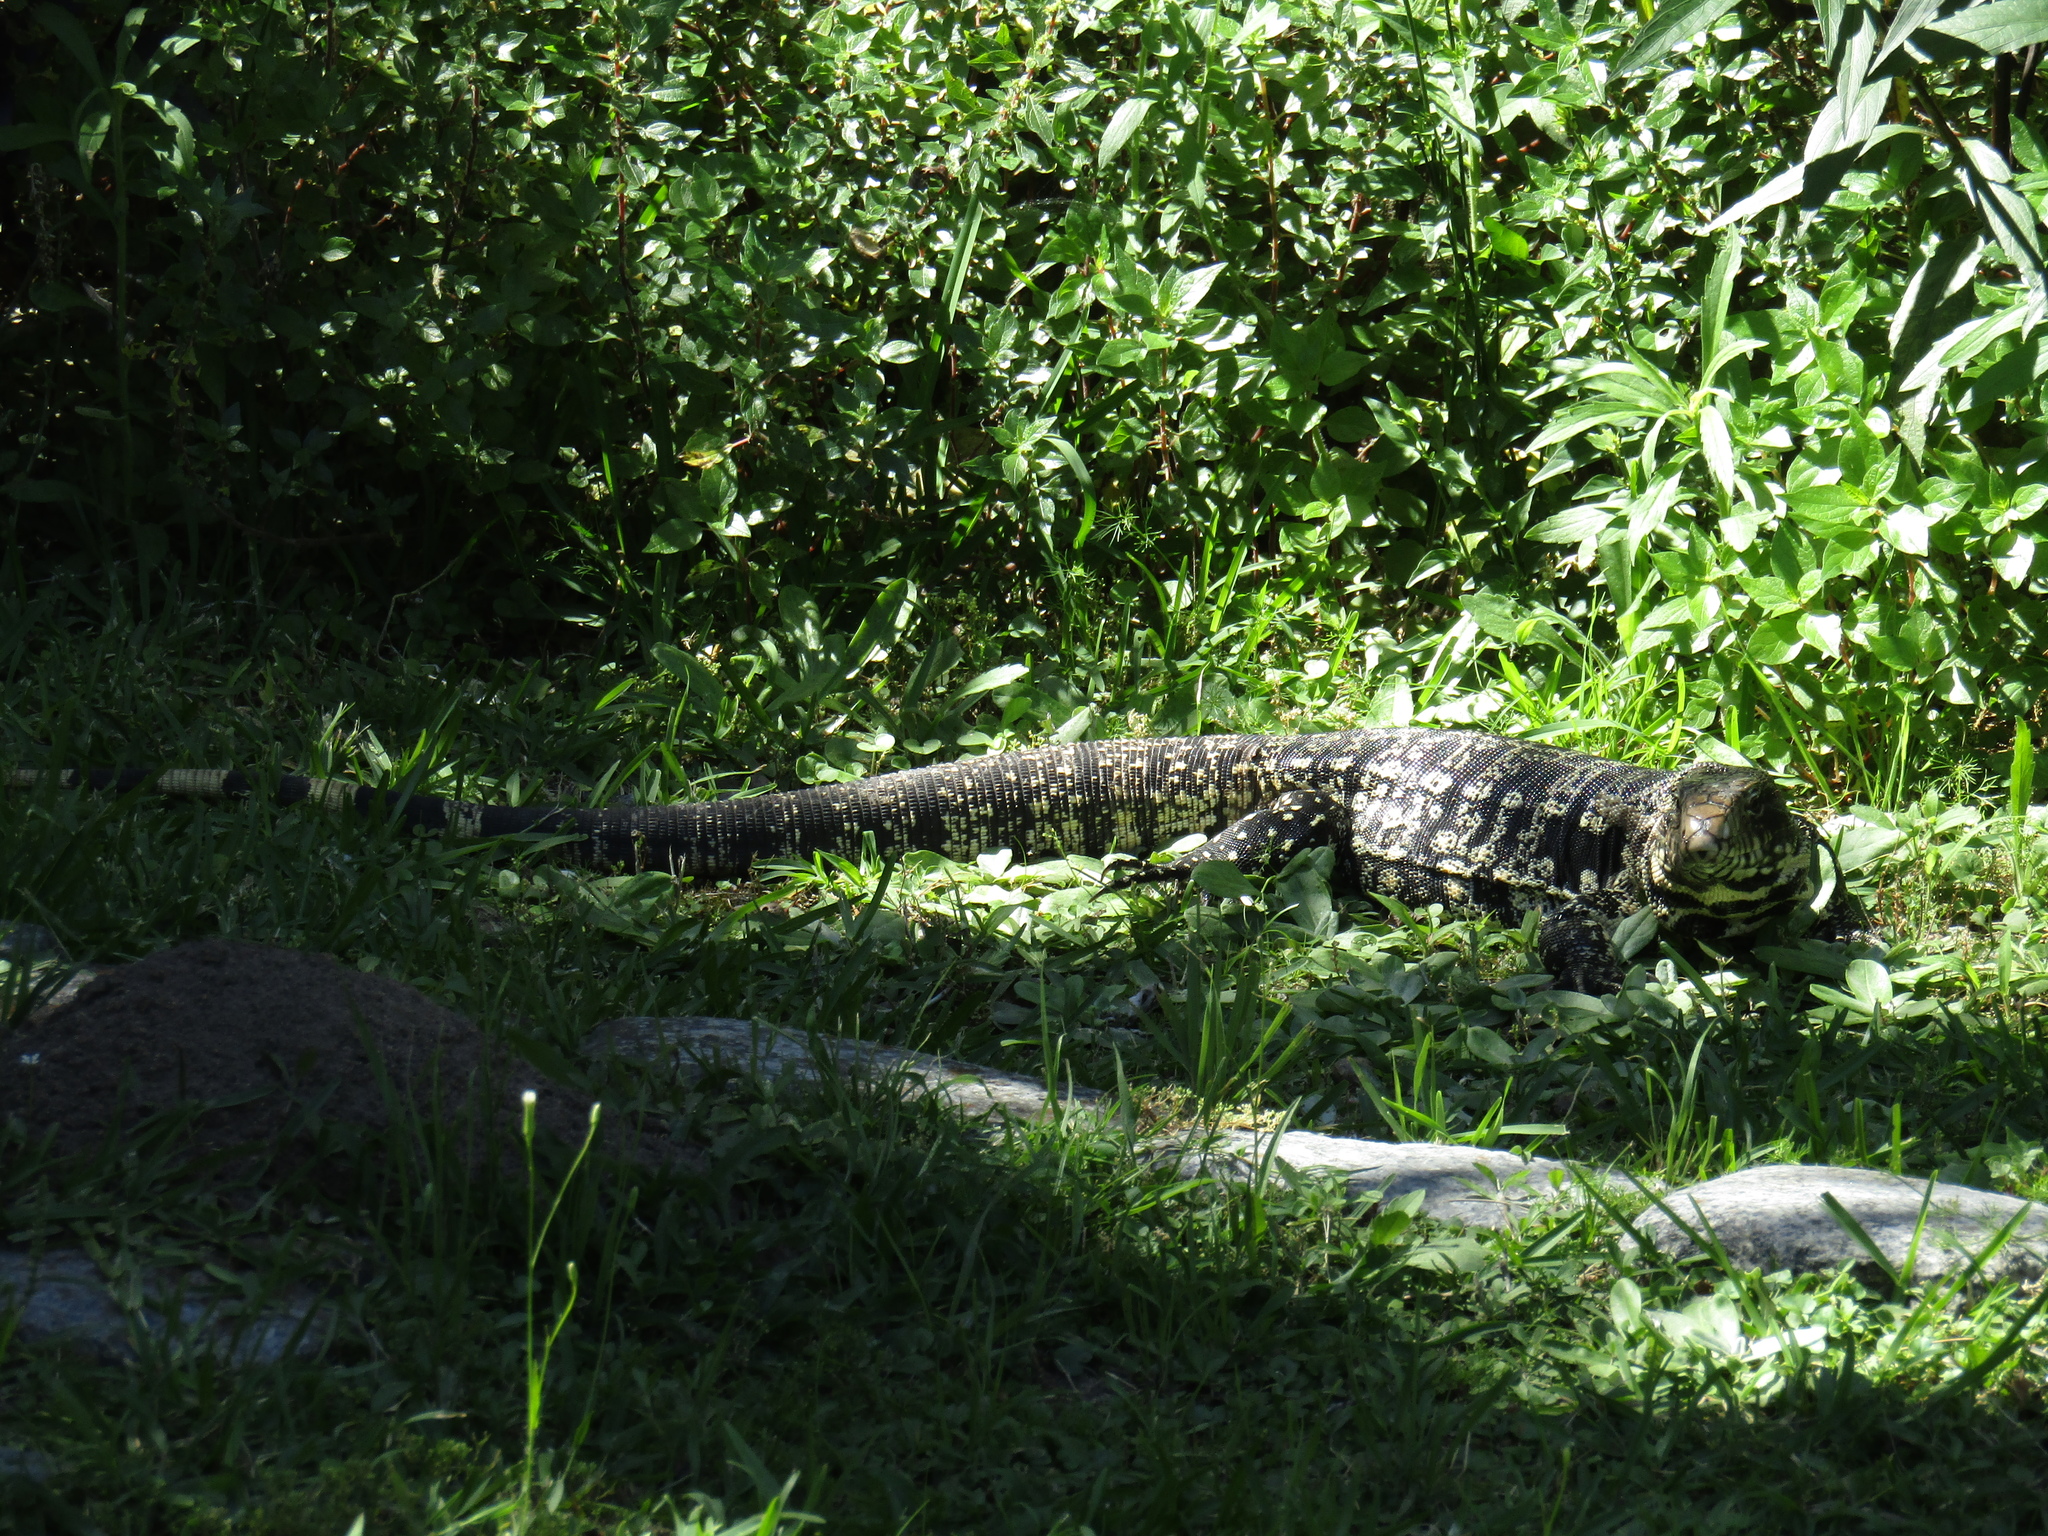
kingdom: Animalia
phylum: Chordata
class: Squamata
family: Teiidae
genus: Salvator
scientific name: Salvator merianae
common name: Argentine black and white tegu
